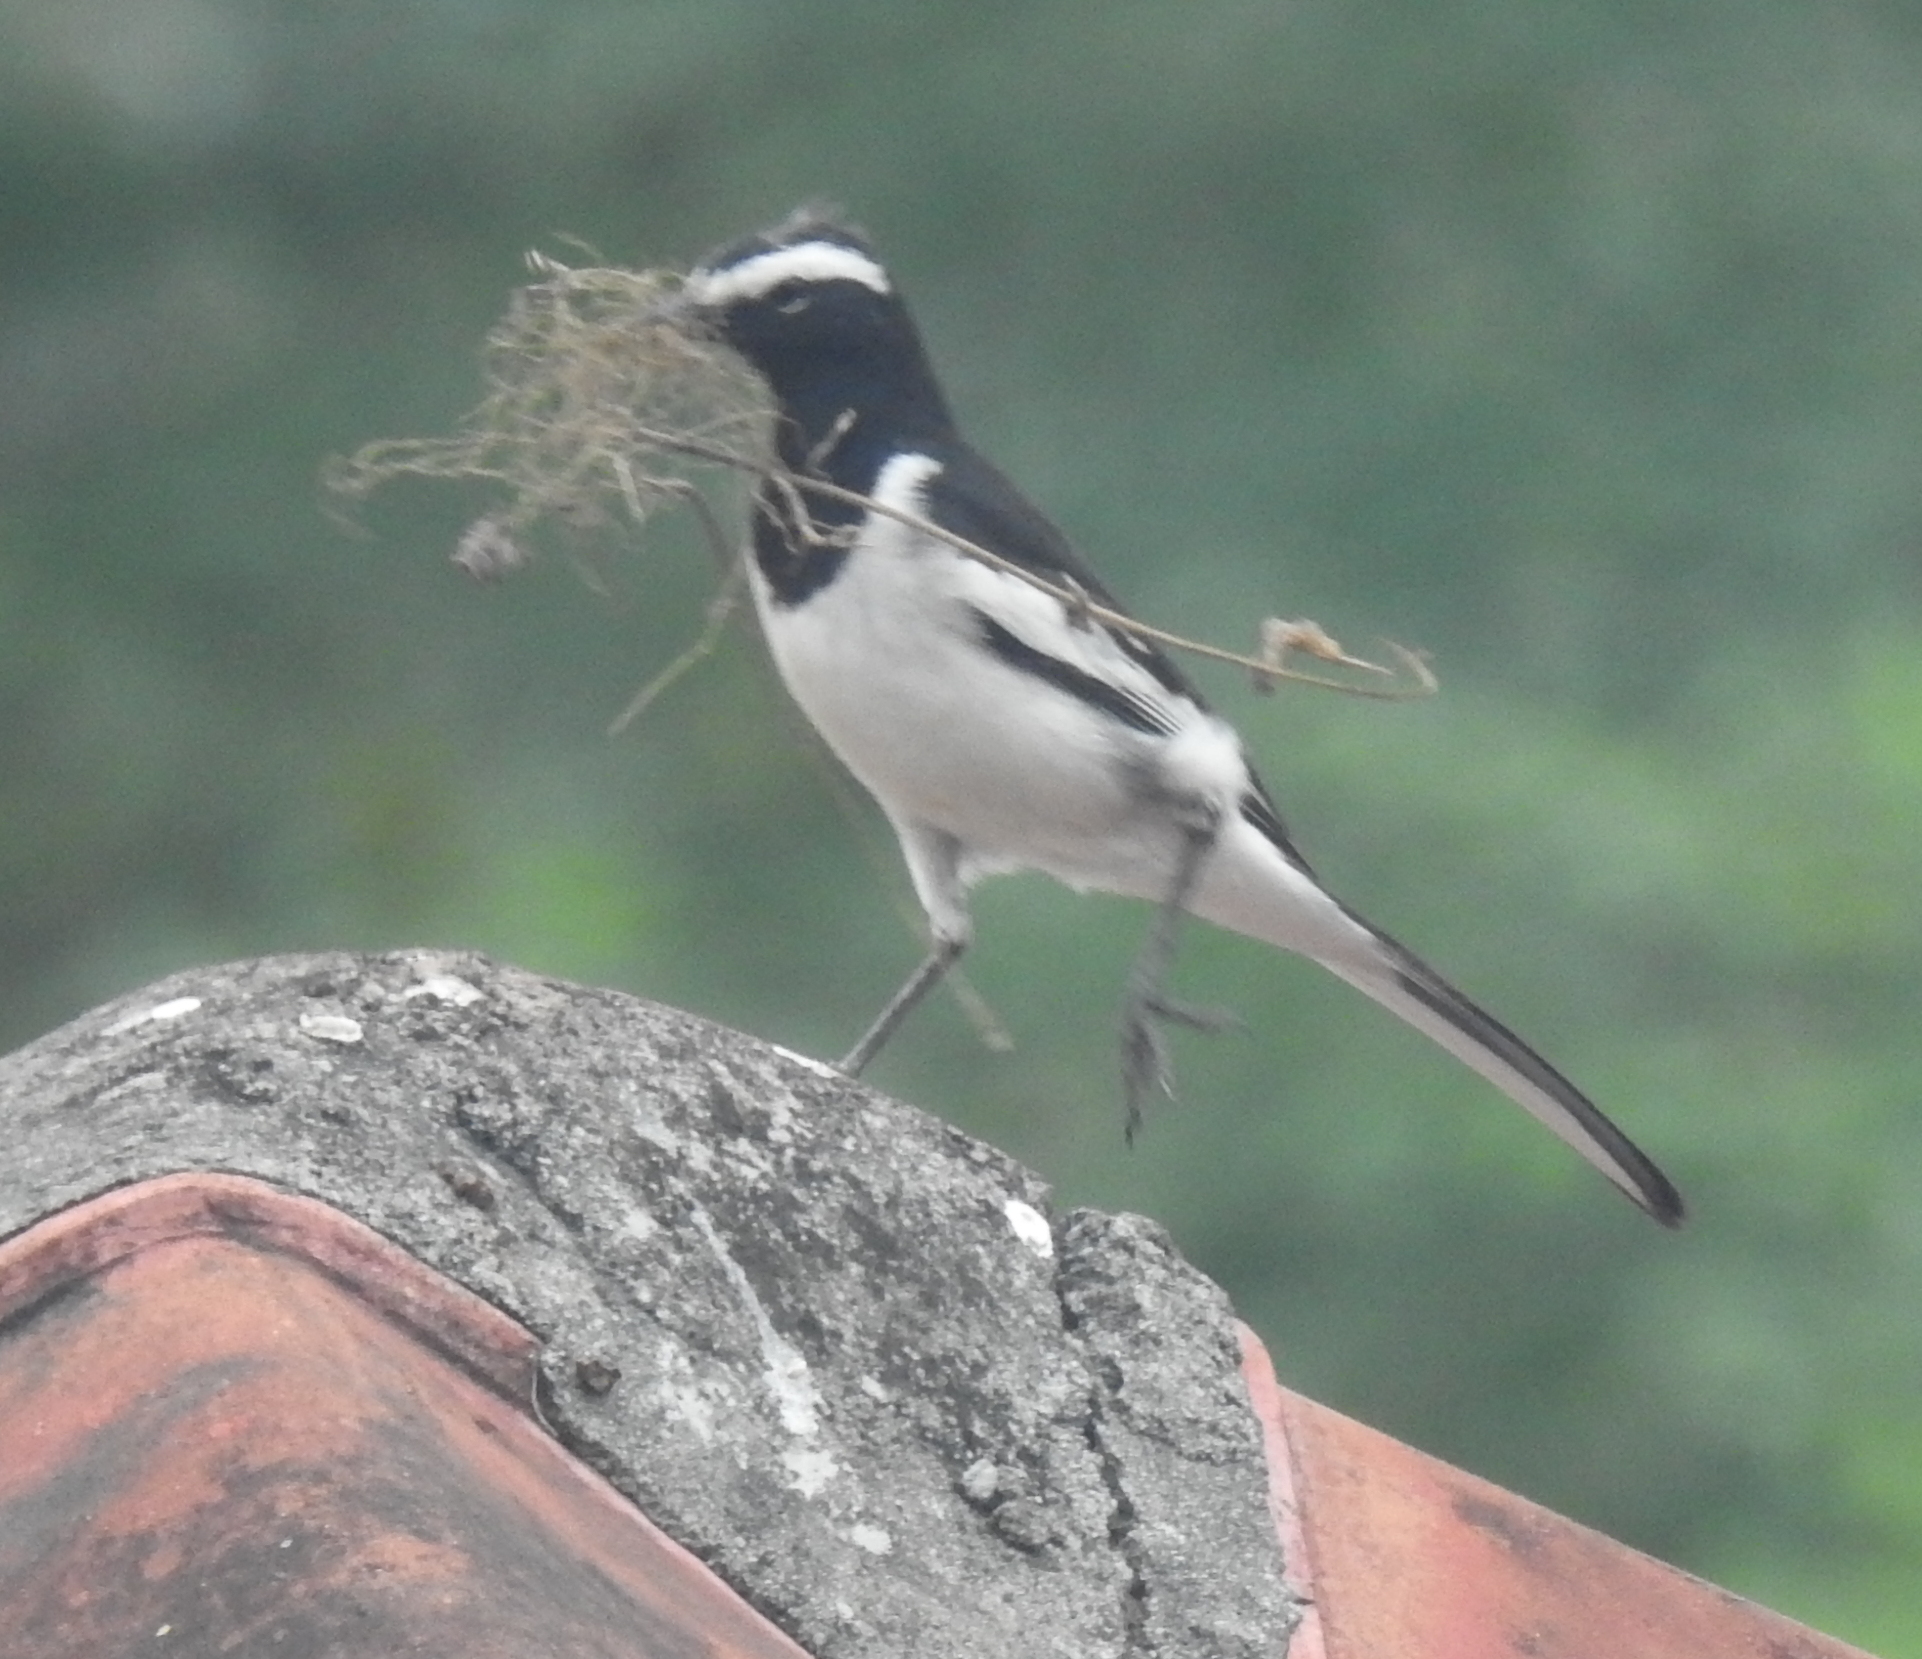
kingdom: Animalia
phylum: Chordata
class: Aves
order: Passeriformes
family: Motacillidae
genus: Motacilla
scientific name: Motacilla maderaspatensis
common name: White-browed wagtail
